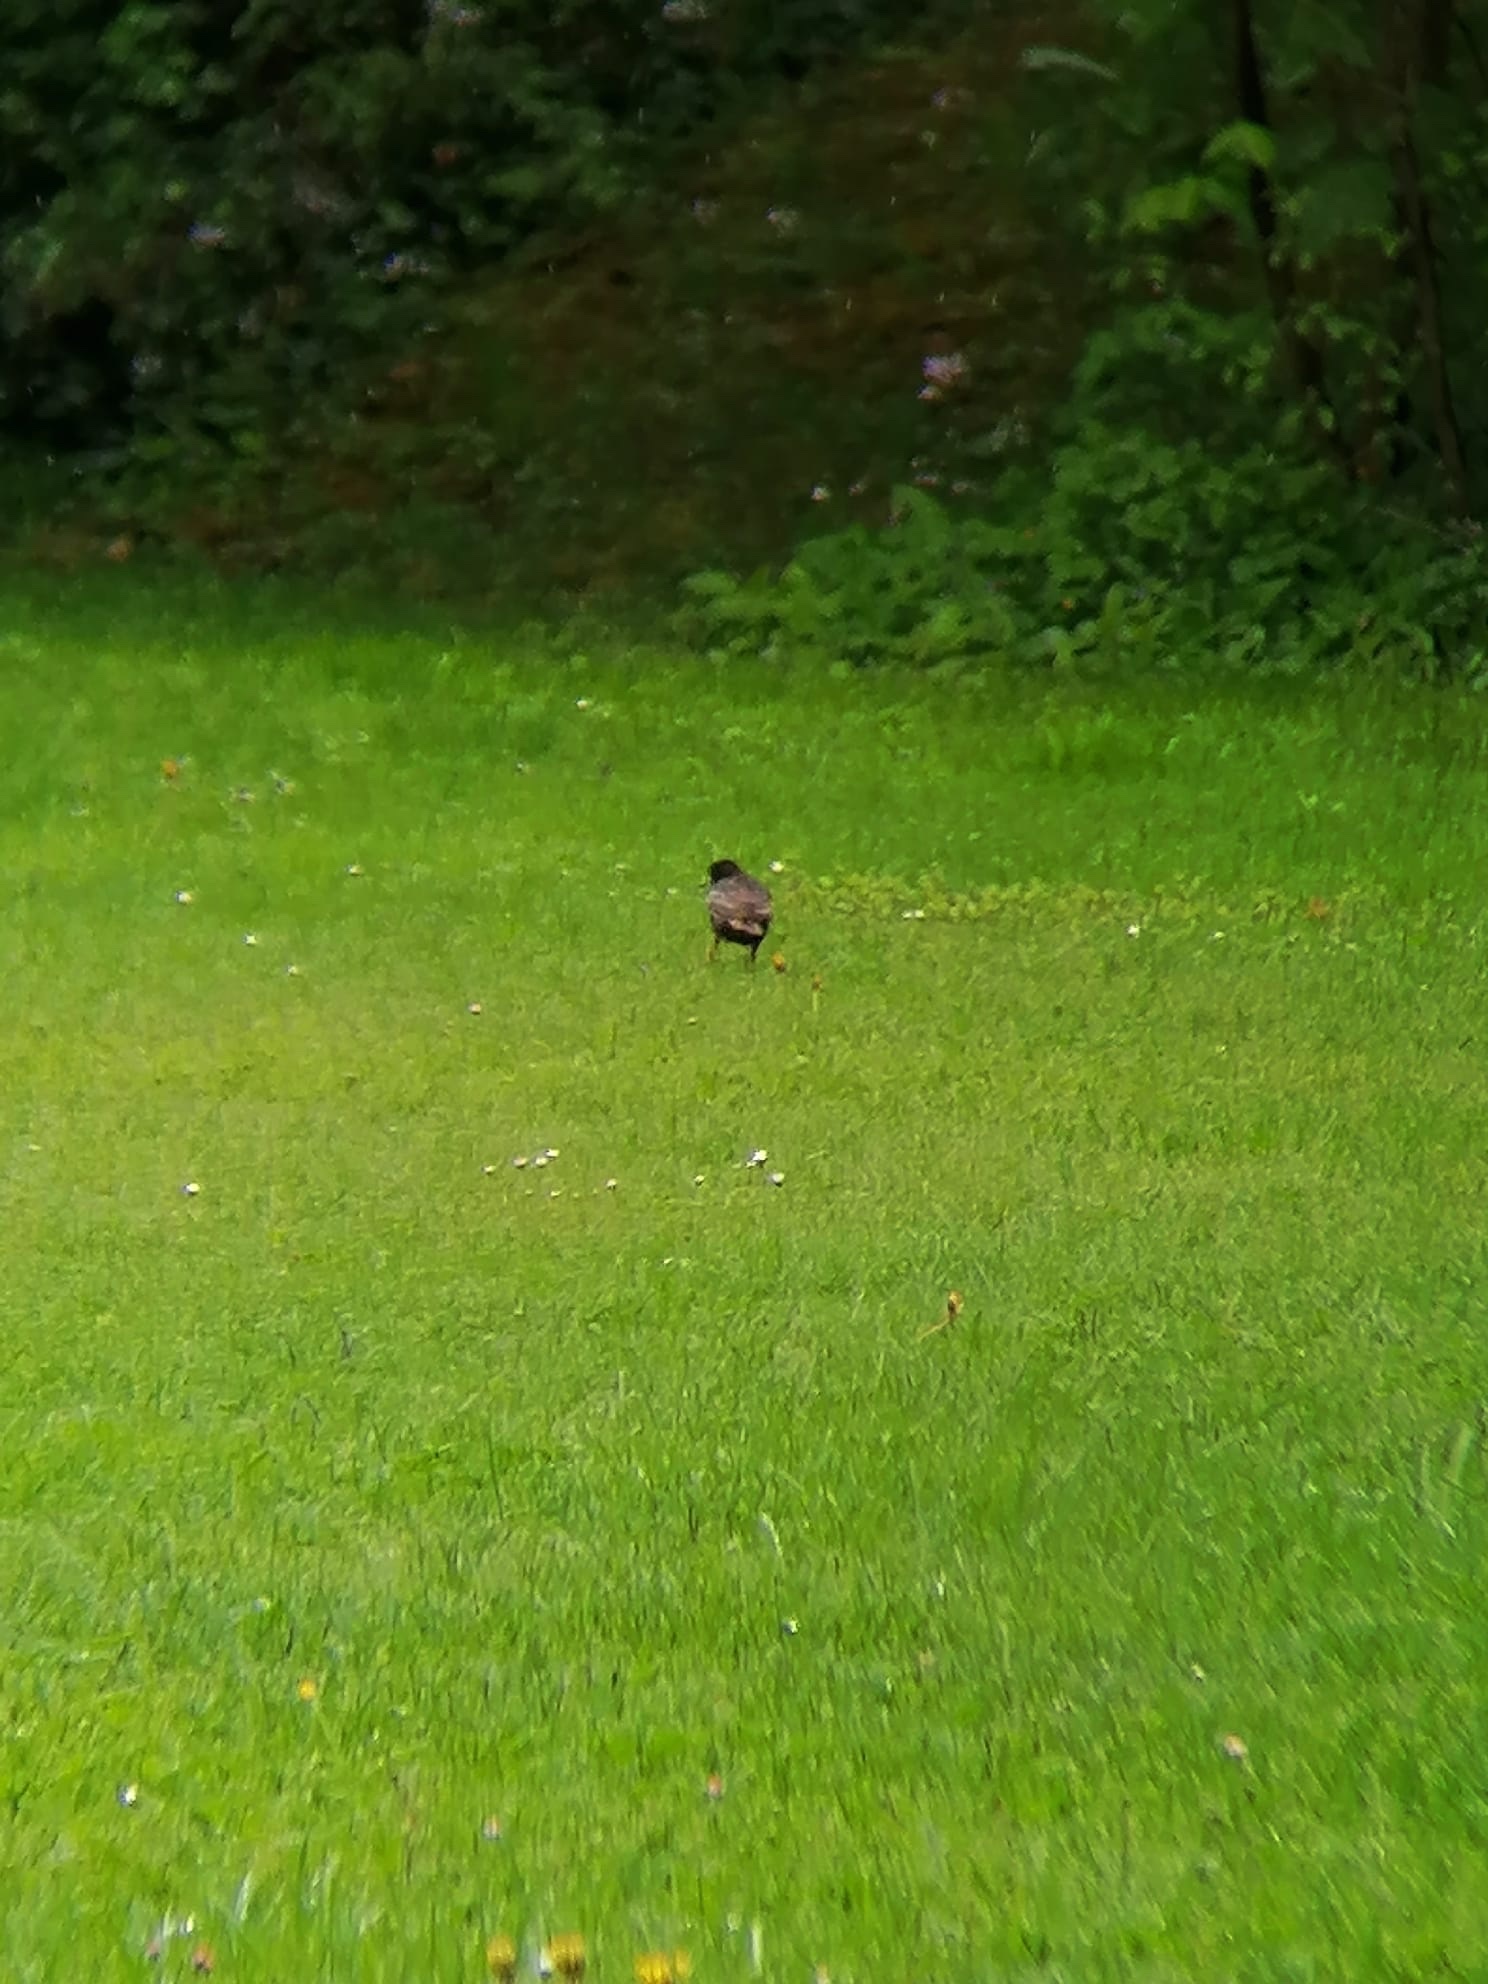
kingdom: Animalia
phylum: Chordata
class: Aves
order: Passeriformes
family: Sturnidae
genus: Sturnus
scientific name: Sturnus vulgaris
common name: Common starling
